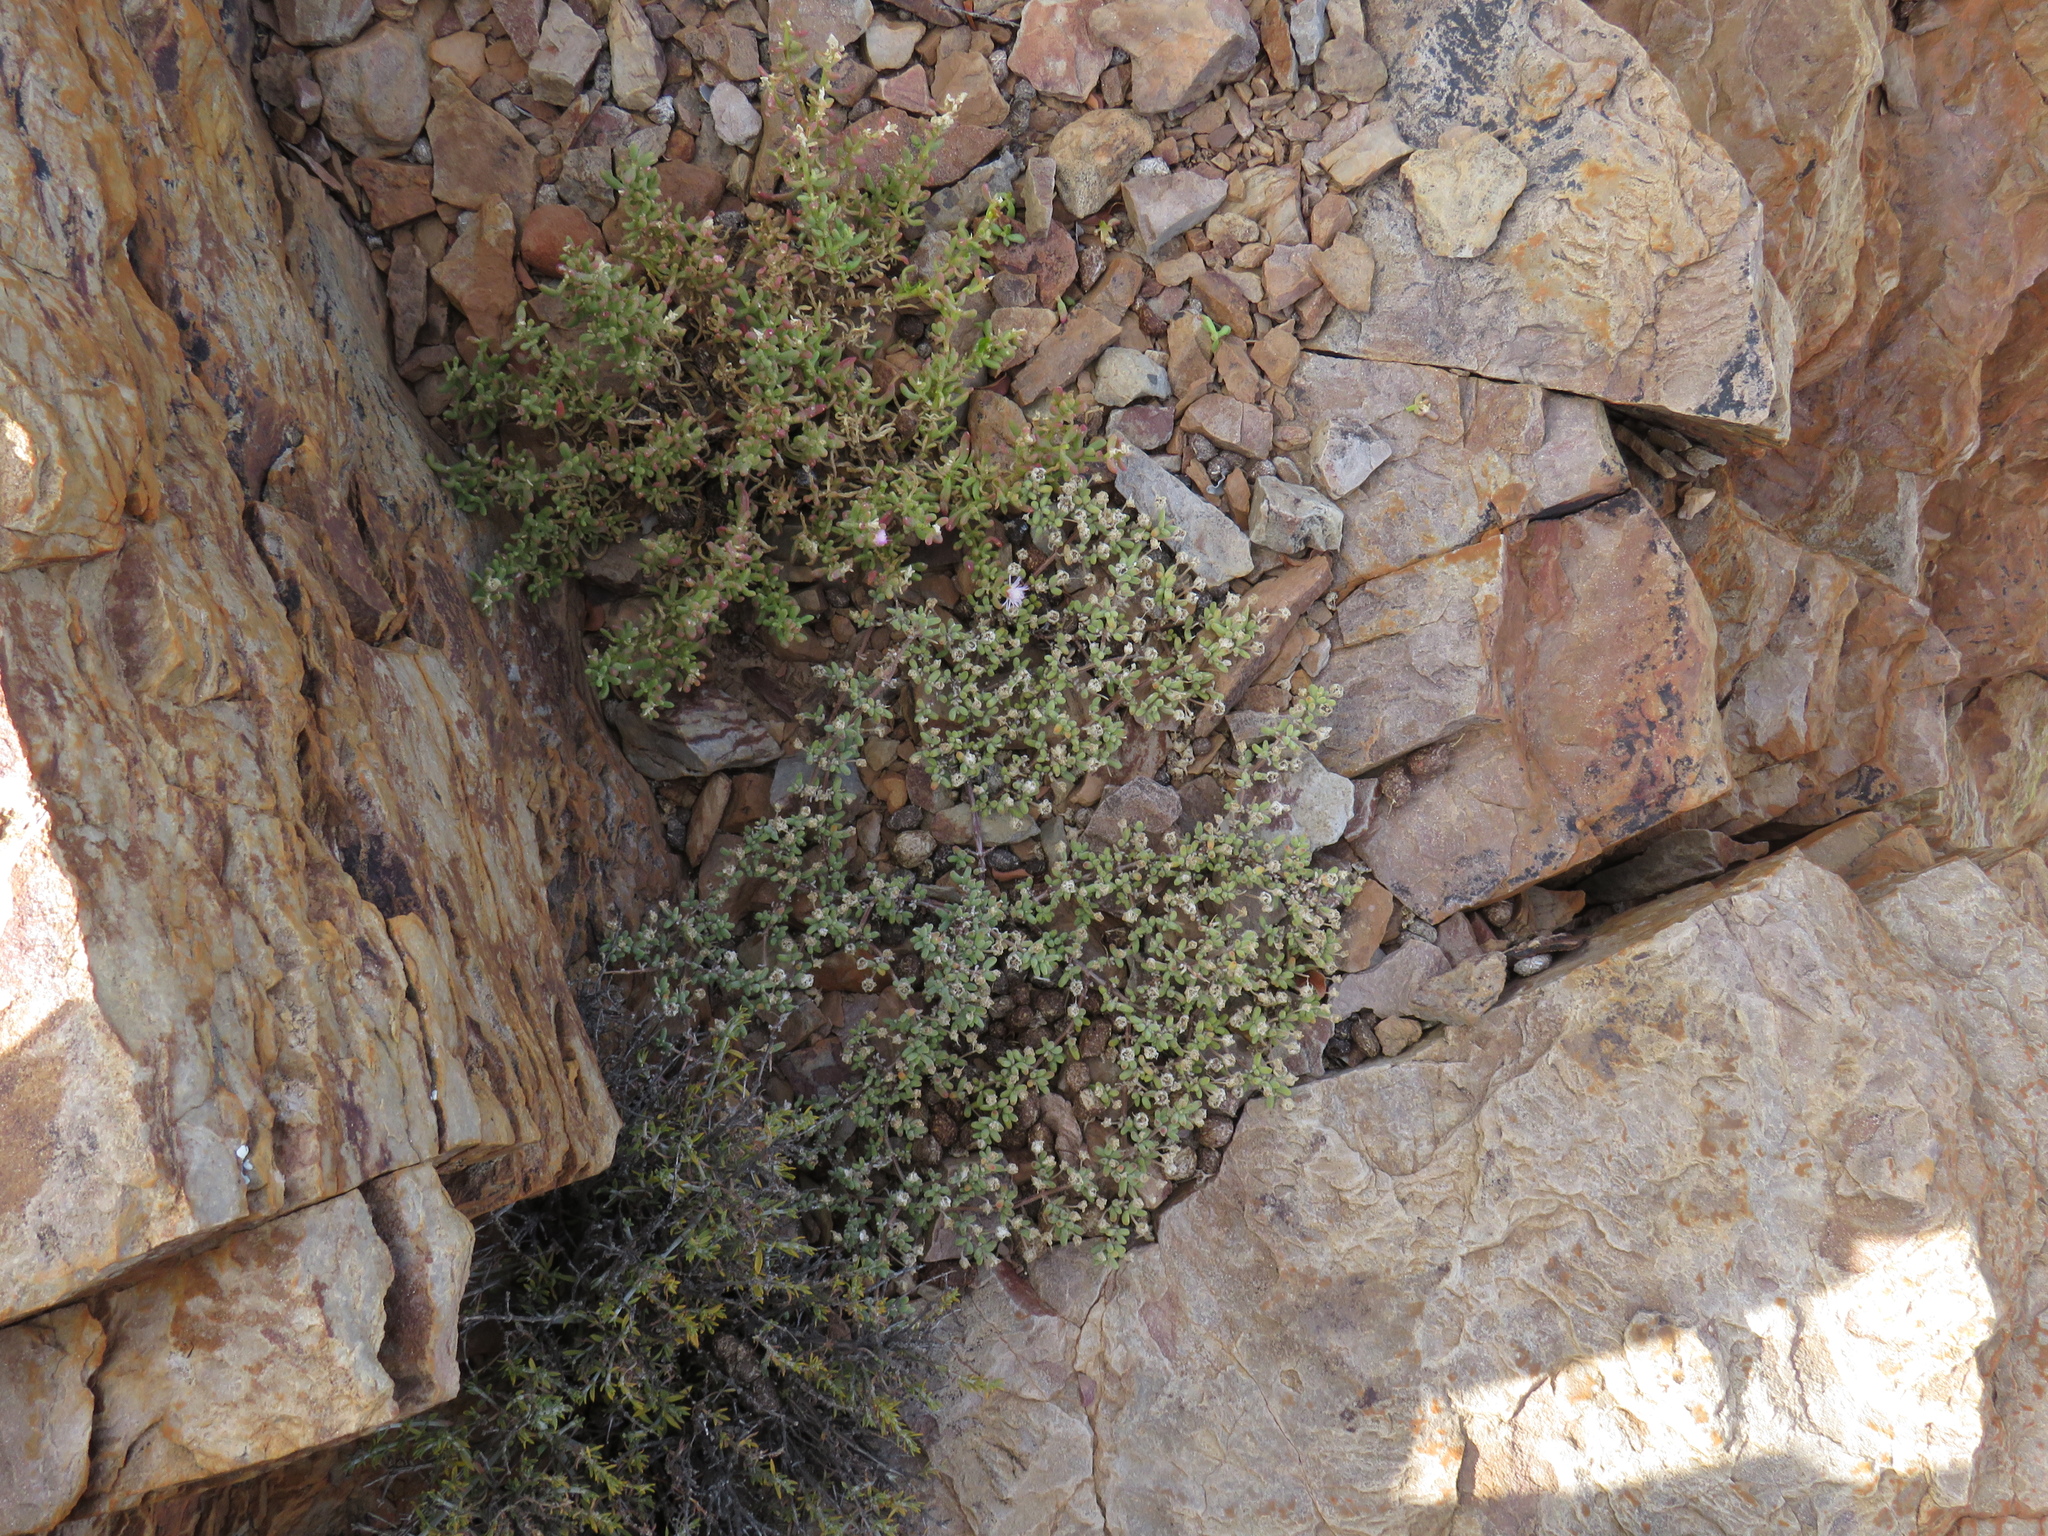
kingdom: Plantae
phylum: Tracheophyta
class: Magnoliopsida
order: Caryophyllales
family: Aizoaceae
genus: Drosanthemum
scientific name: Drosanthemum ambiguum
